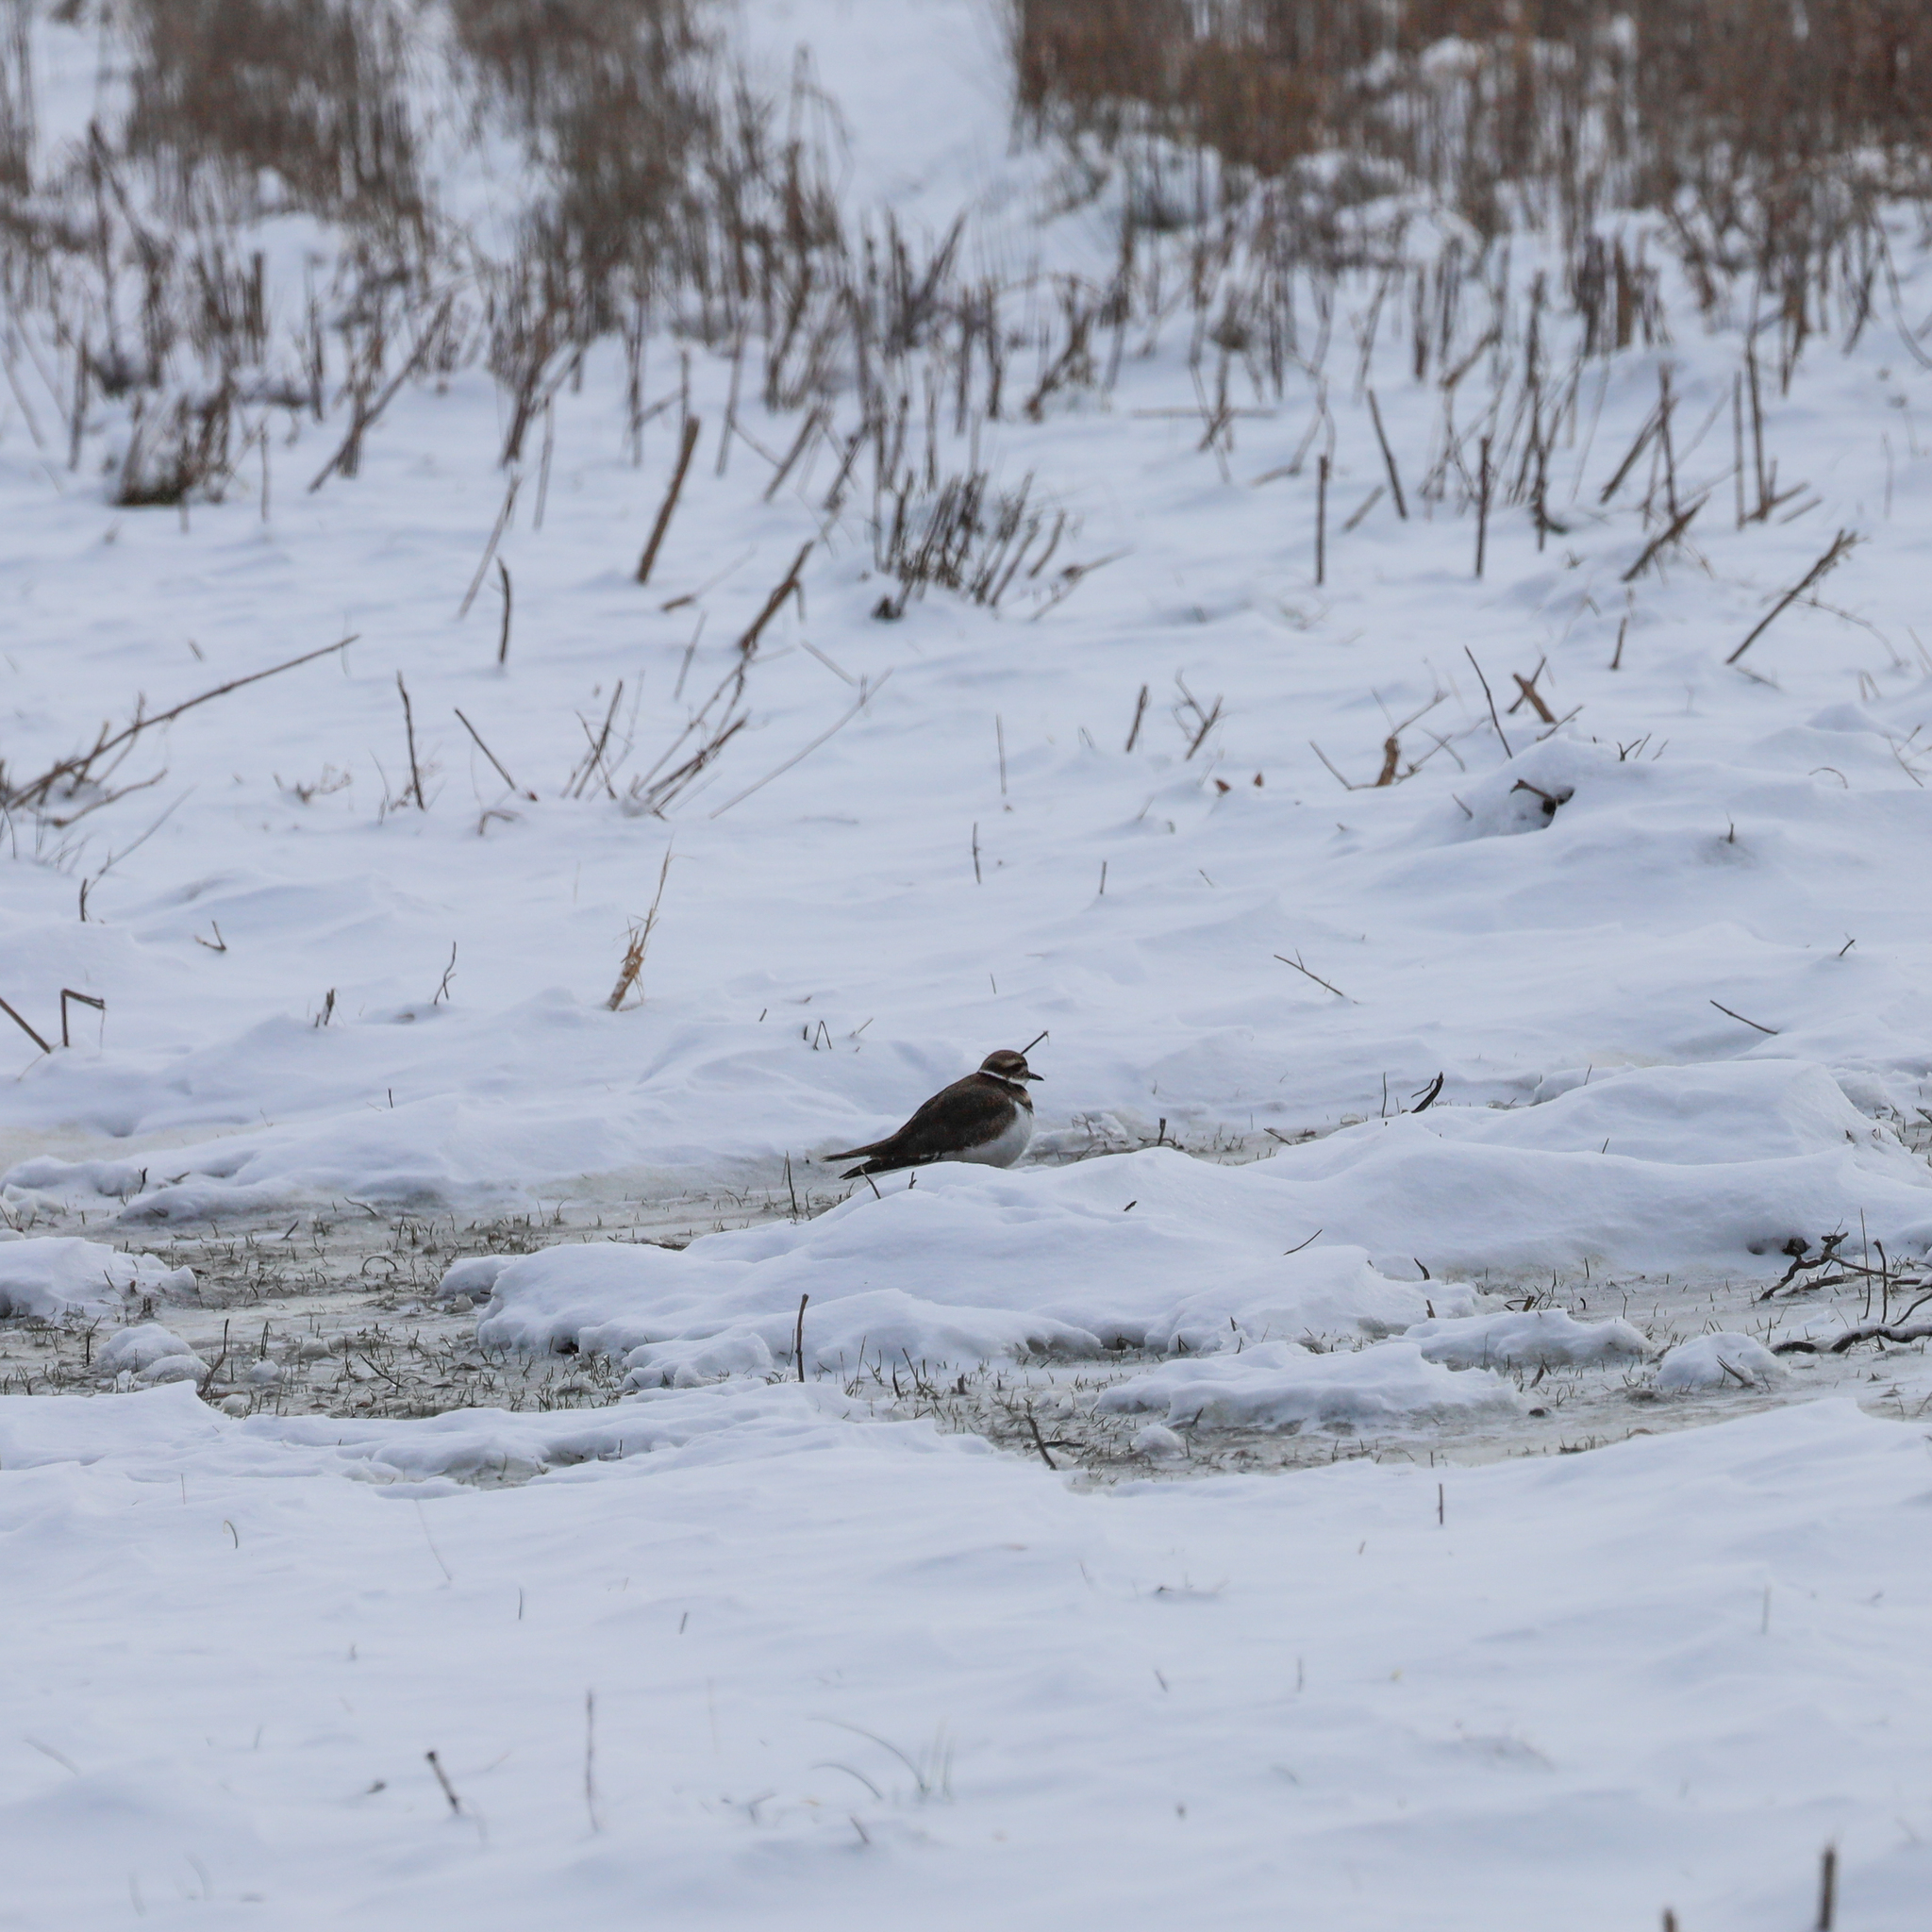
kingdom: Animalia
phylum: Chordata
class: Aves
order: Charadriiformes
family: Charadriidae
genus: Charadrius
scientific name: Charadrius vociferus
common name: Killdeer
